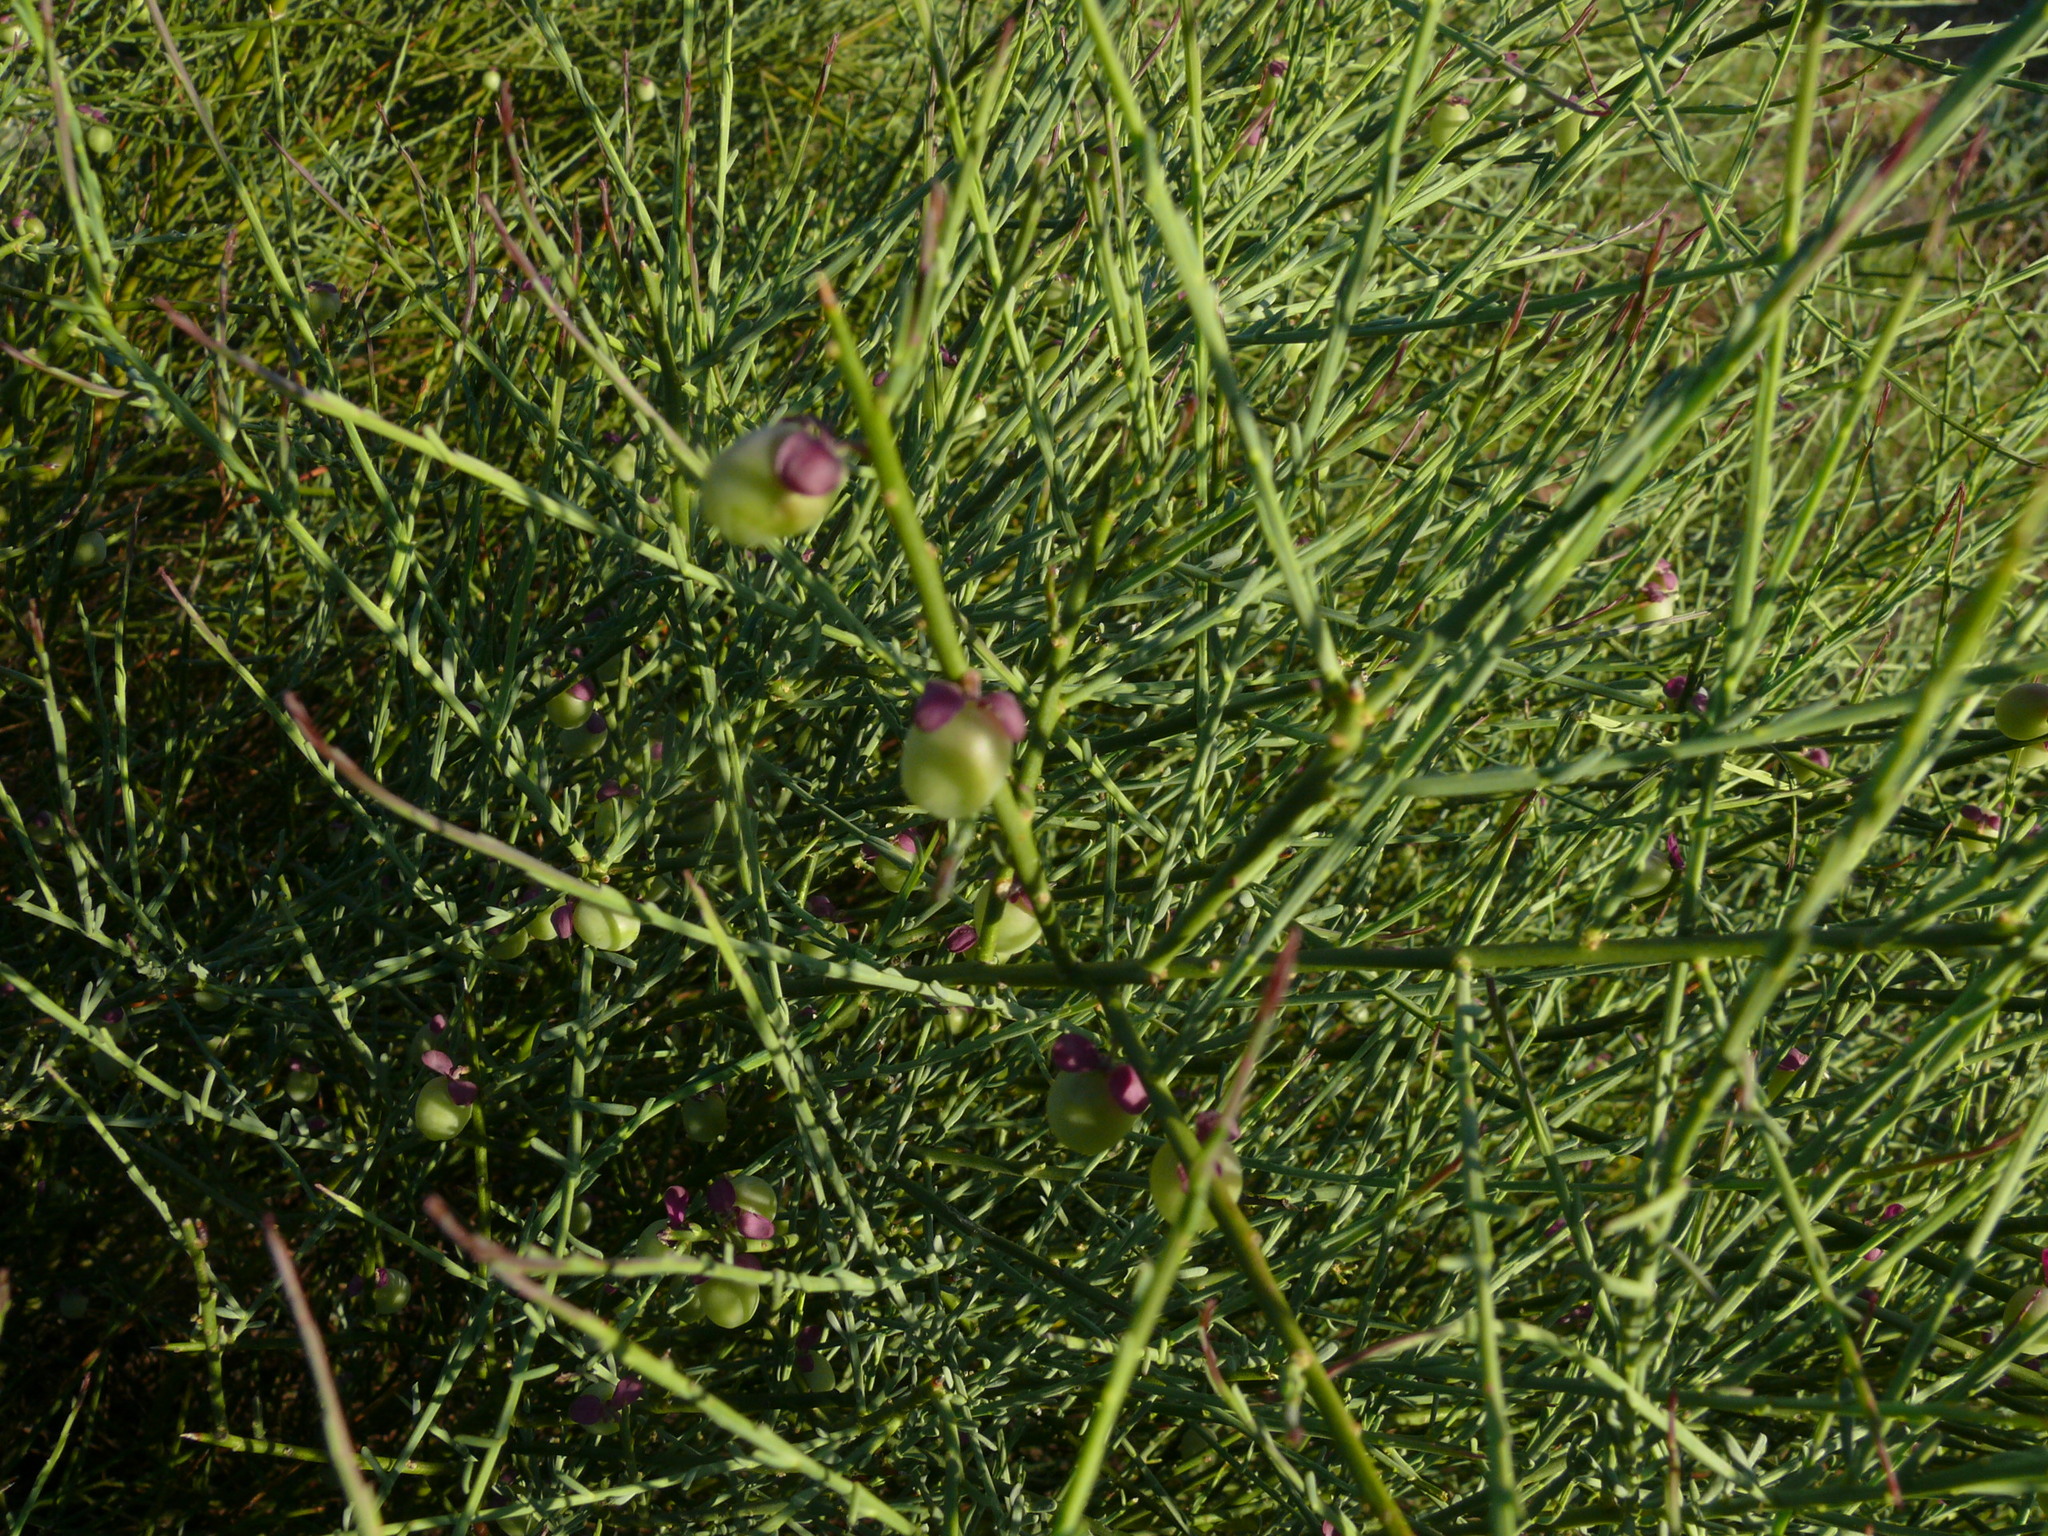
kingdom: Plantae
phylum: Tracheophyta
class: Magnoliopsida
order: Fabales
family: Polygalaceae
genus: Muraltia
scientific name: Muraltia spinosa
